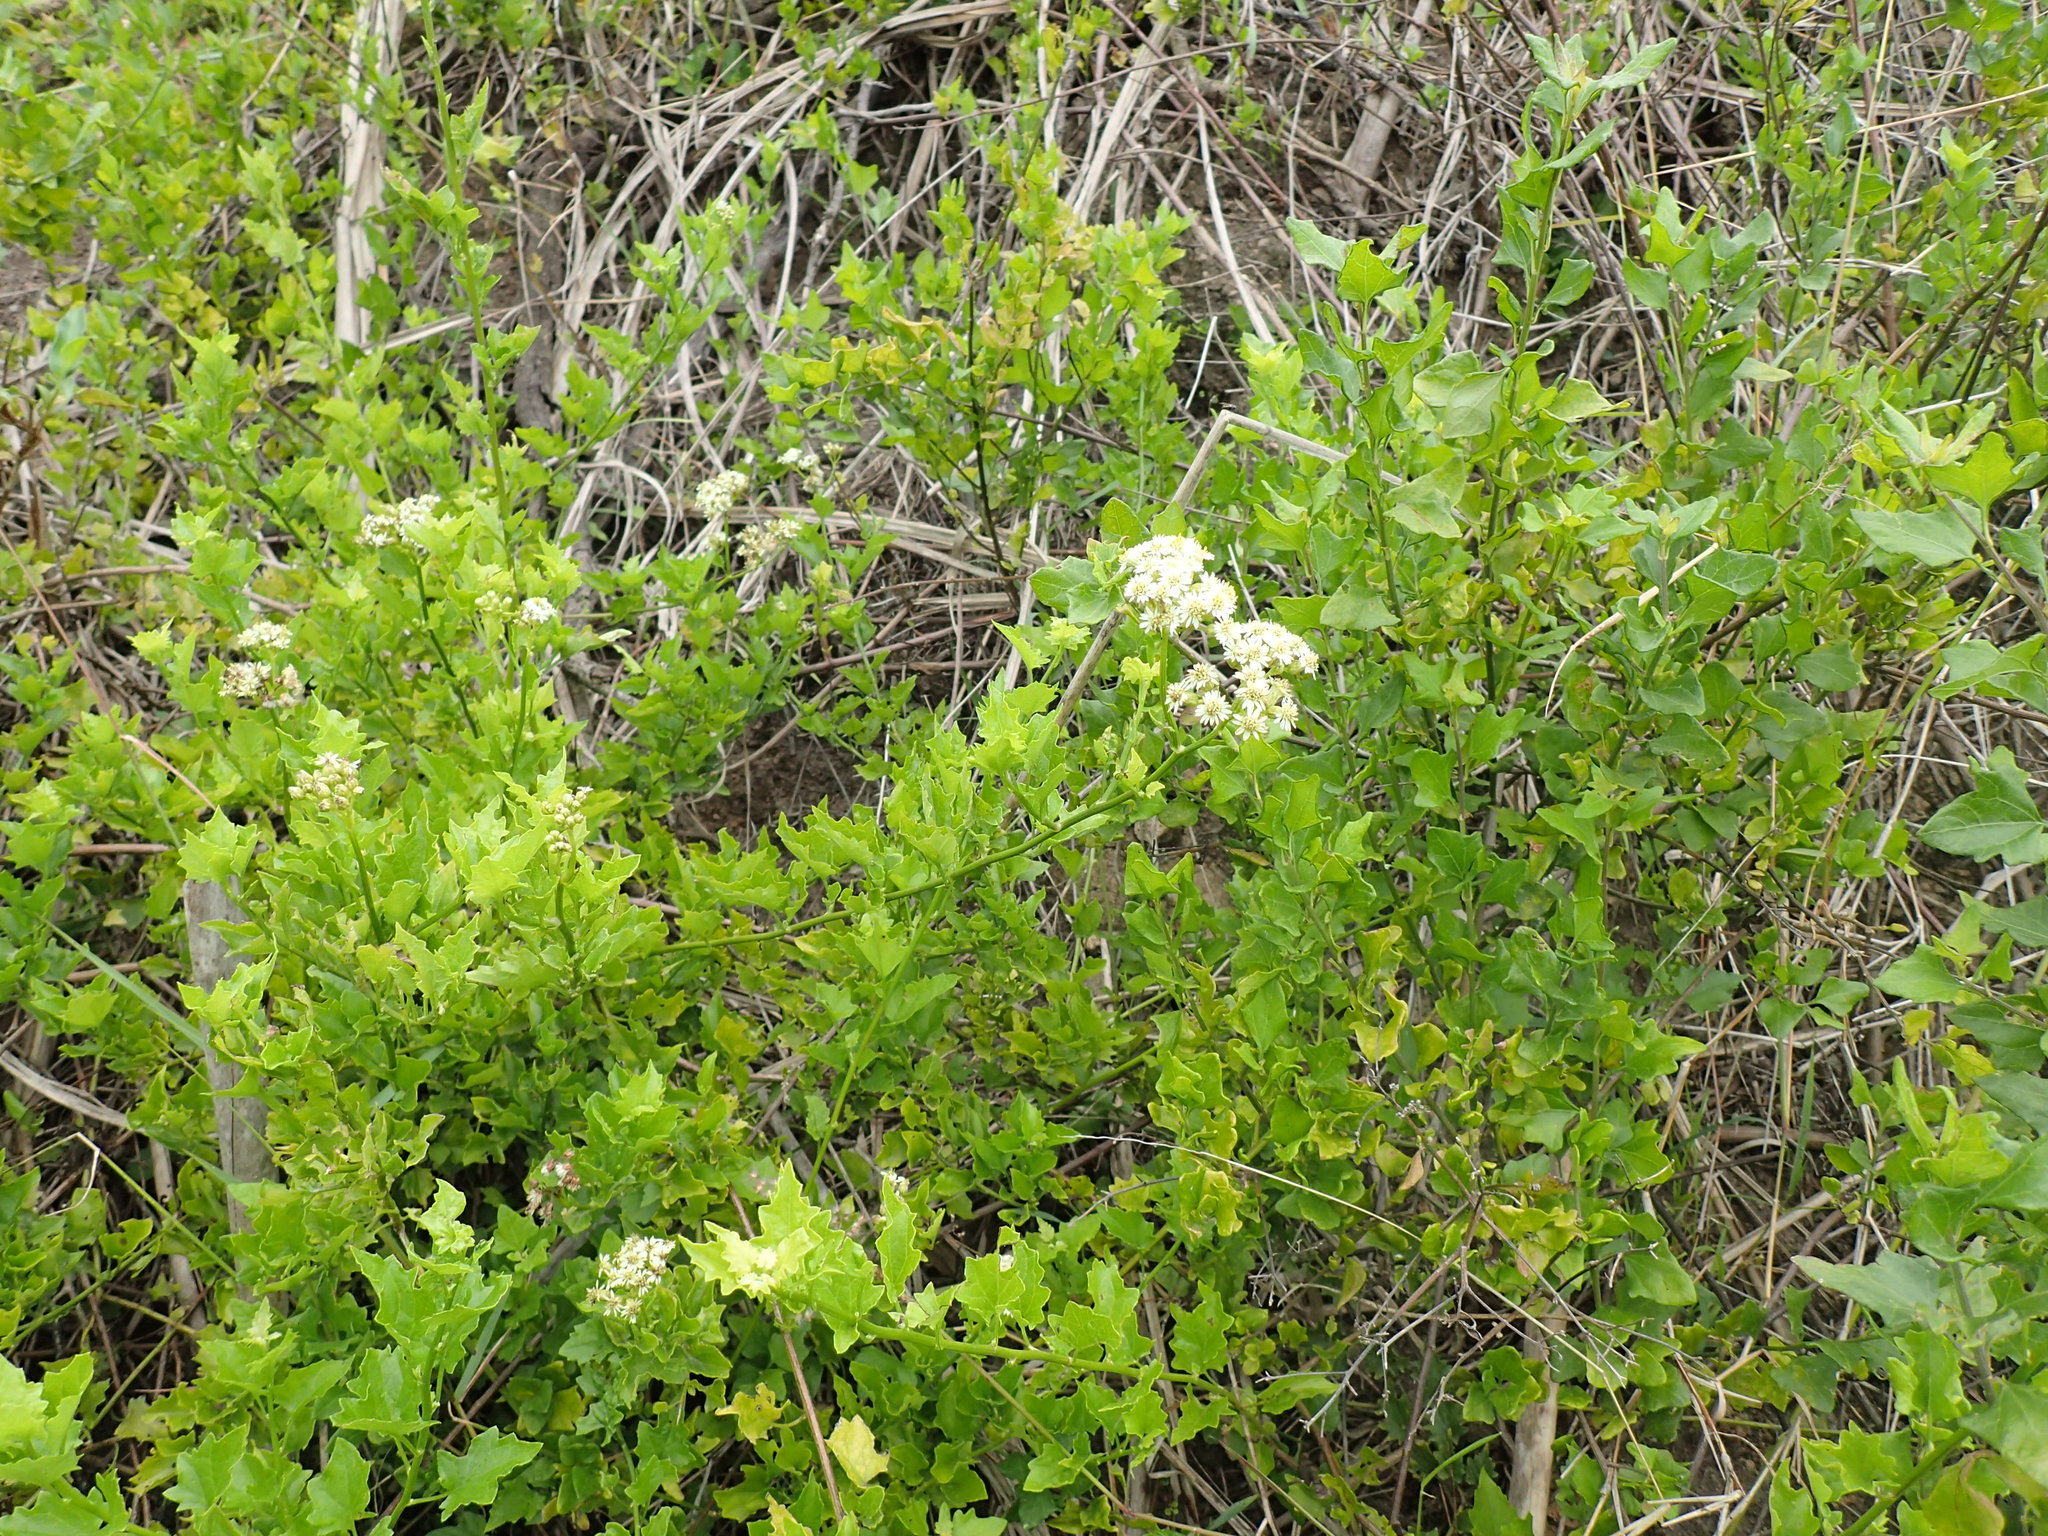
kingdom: Plantae
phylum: Tracheophyta
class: Magnoliopsida
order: Asterales
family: Asteraceae
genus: Microglossa
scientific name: Microglossa mespilifolia
